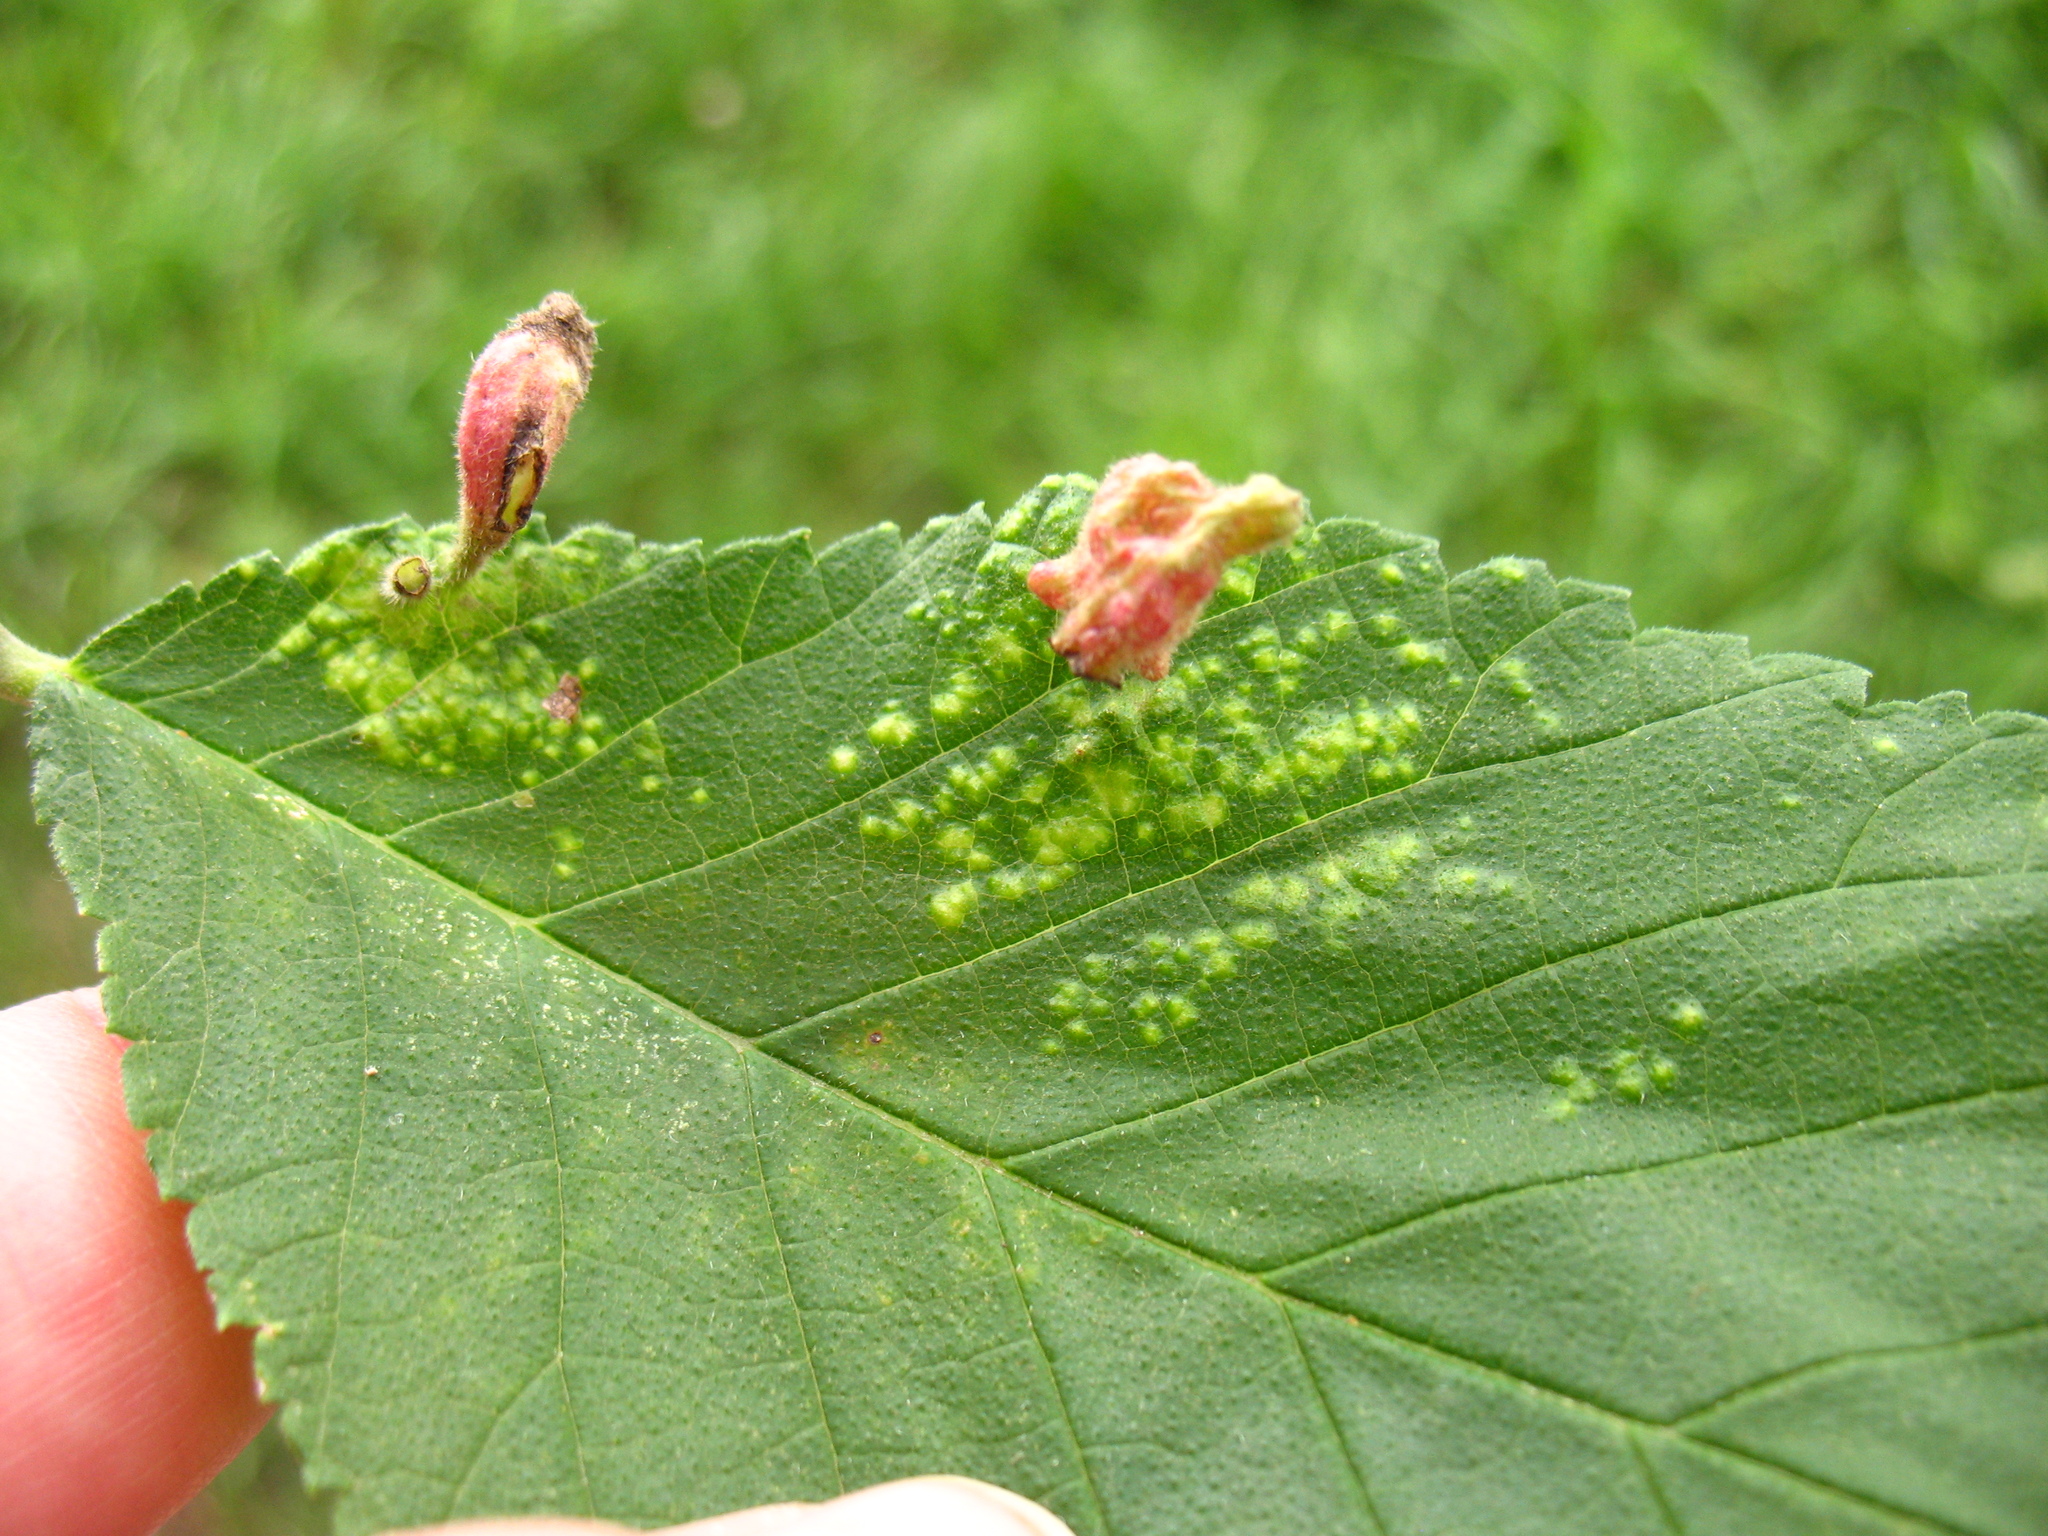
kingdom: Animalia
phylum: Arthropoda
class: Insecta
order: Hemiptera
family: Aphididae
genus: Tetraneura
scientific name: Tetraneura nigriabdominalis
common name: Aphid
